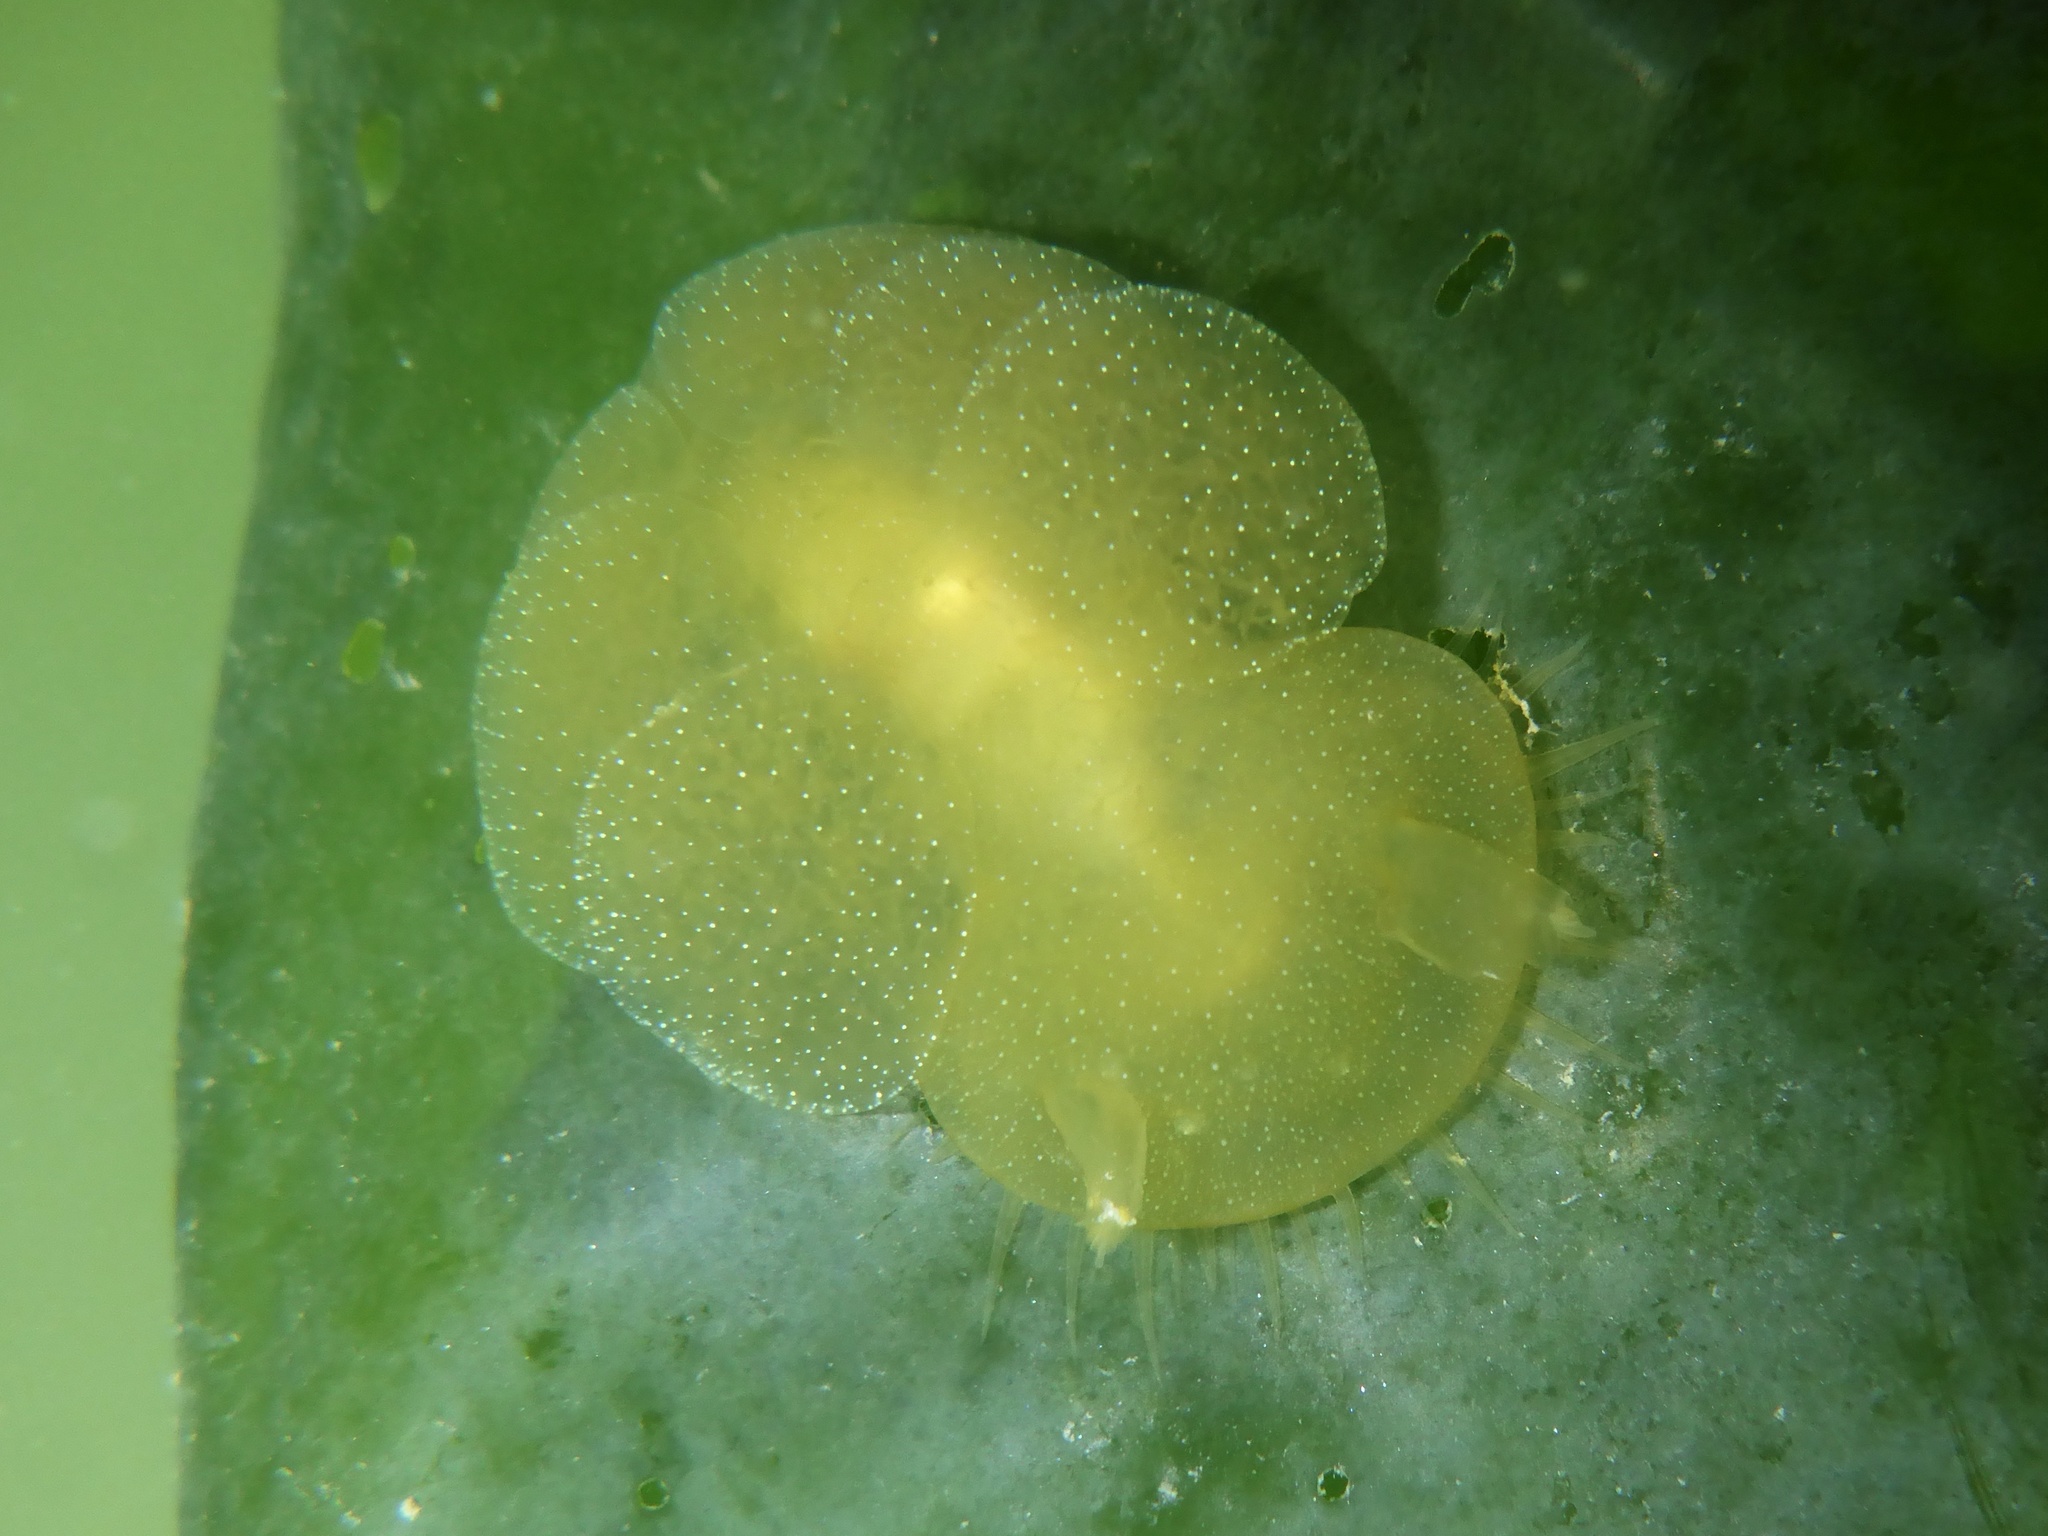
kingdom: Animalia
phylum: Mollusca
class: Gastropoda
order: Nudibranchia
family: Tethydidae
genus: Melibe
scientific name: Melibe leonina
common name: Lion nudibranch
